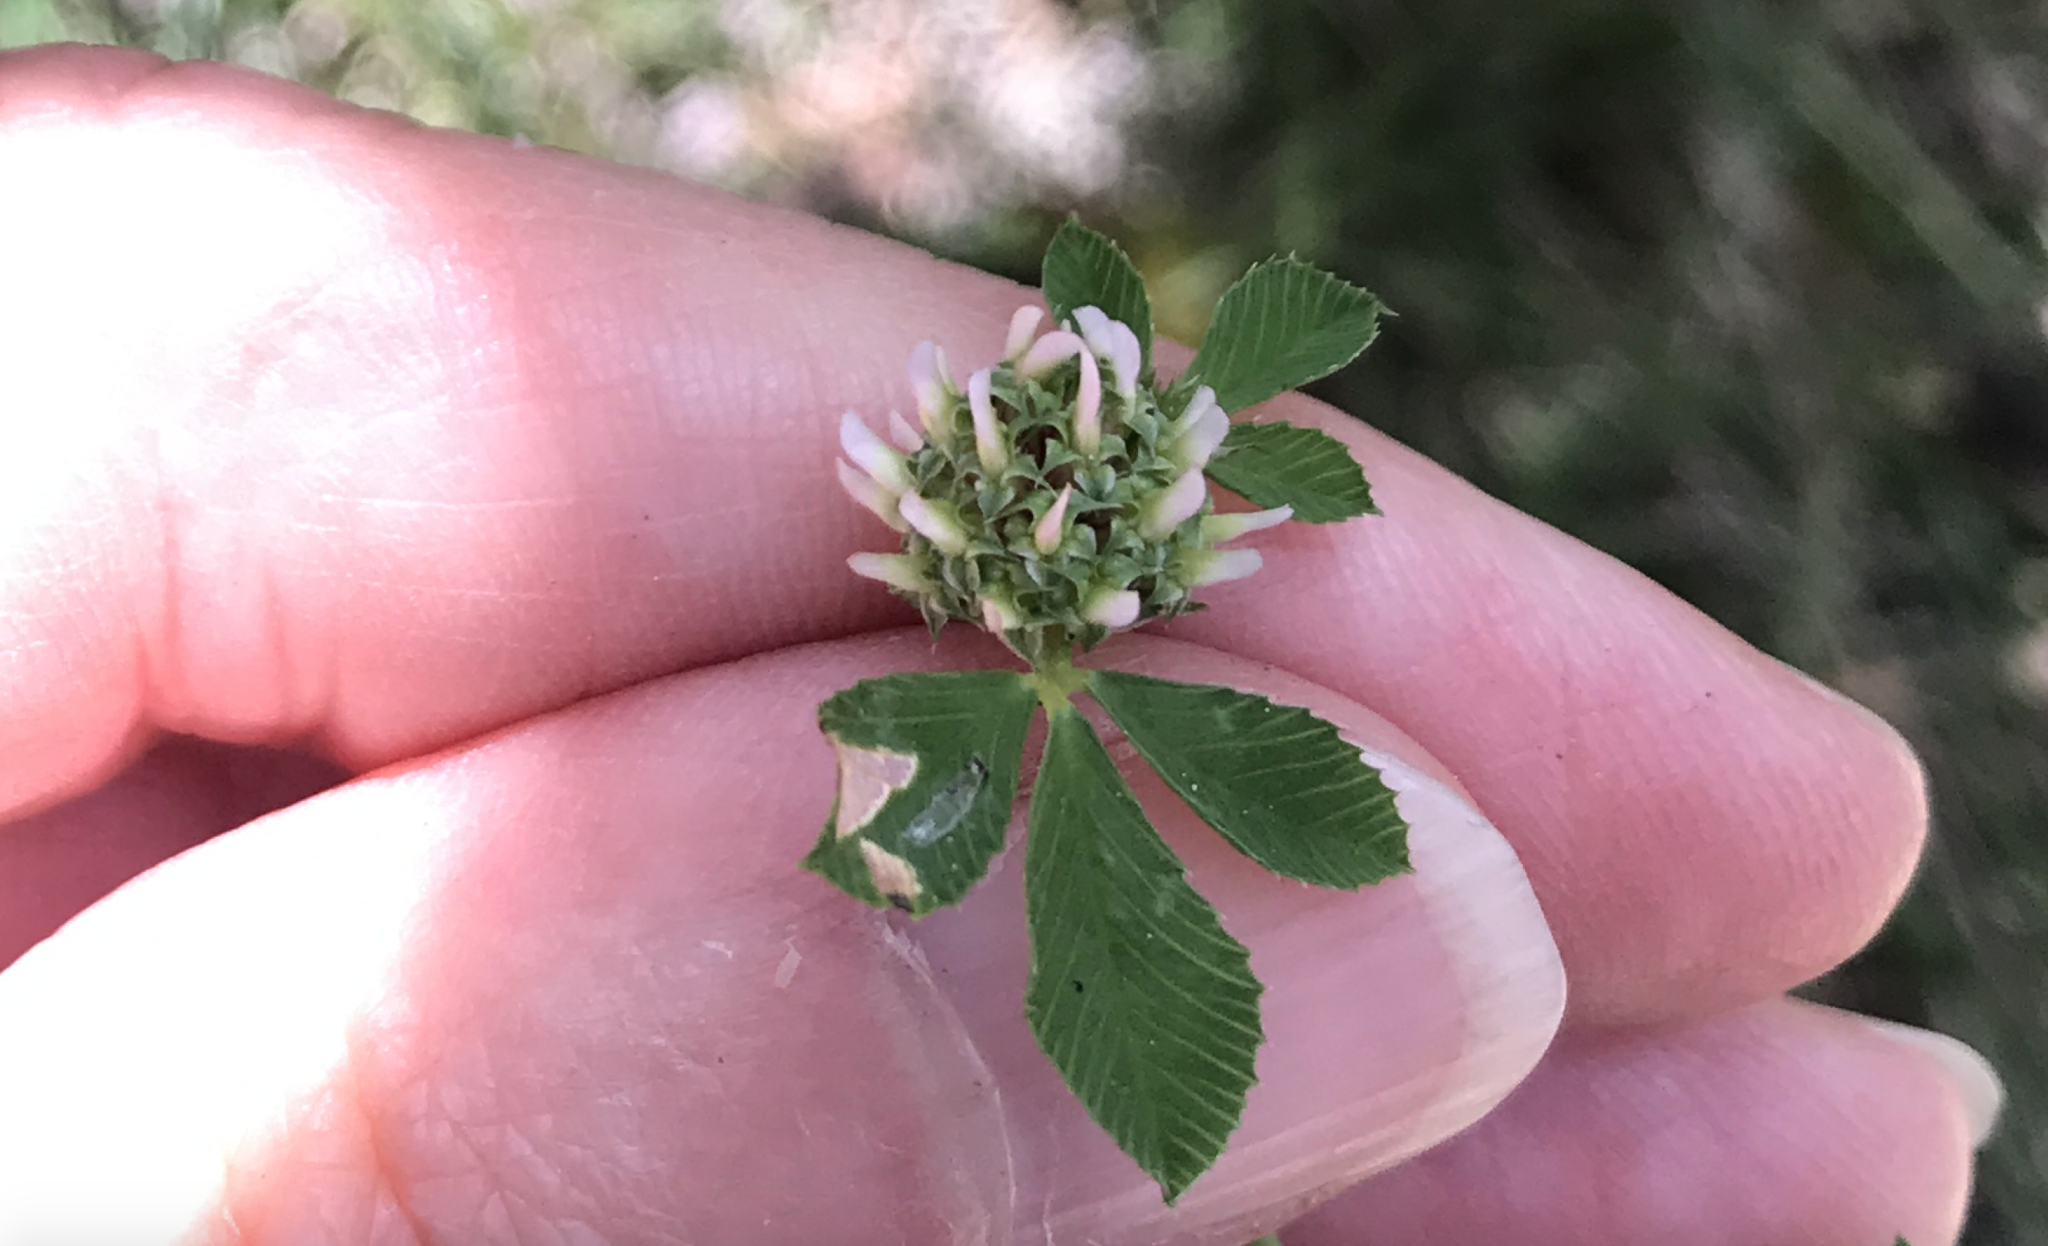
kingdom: Plantae
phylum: Tracheophyta
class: Magnoliopsida
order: Fabales
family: Fabaceae
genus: Trifolium
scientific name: Trifolium glomeratum
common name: Clustered clover
